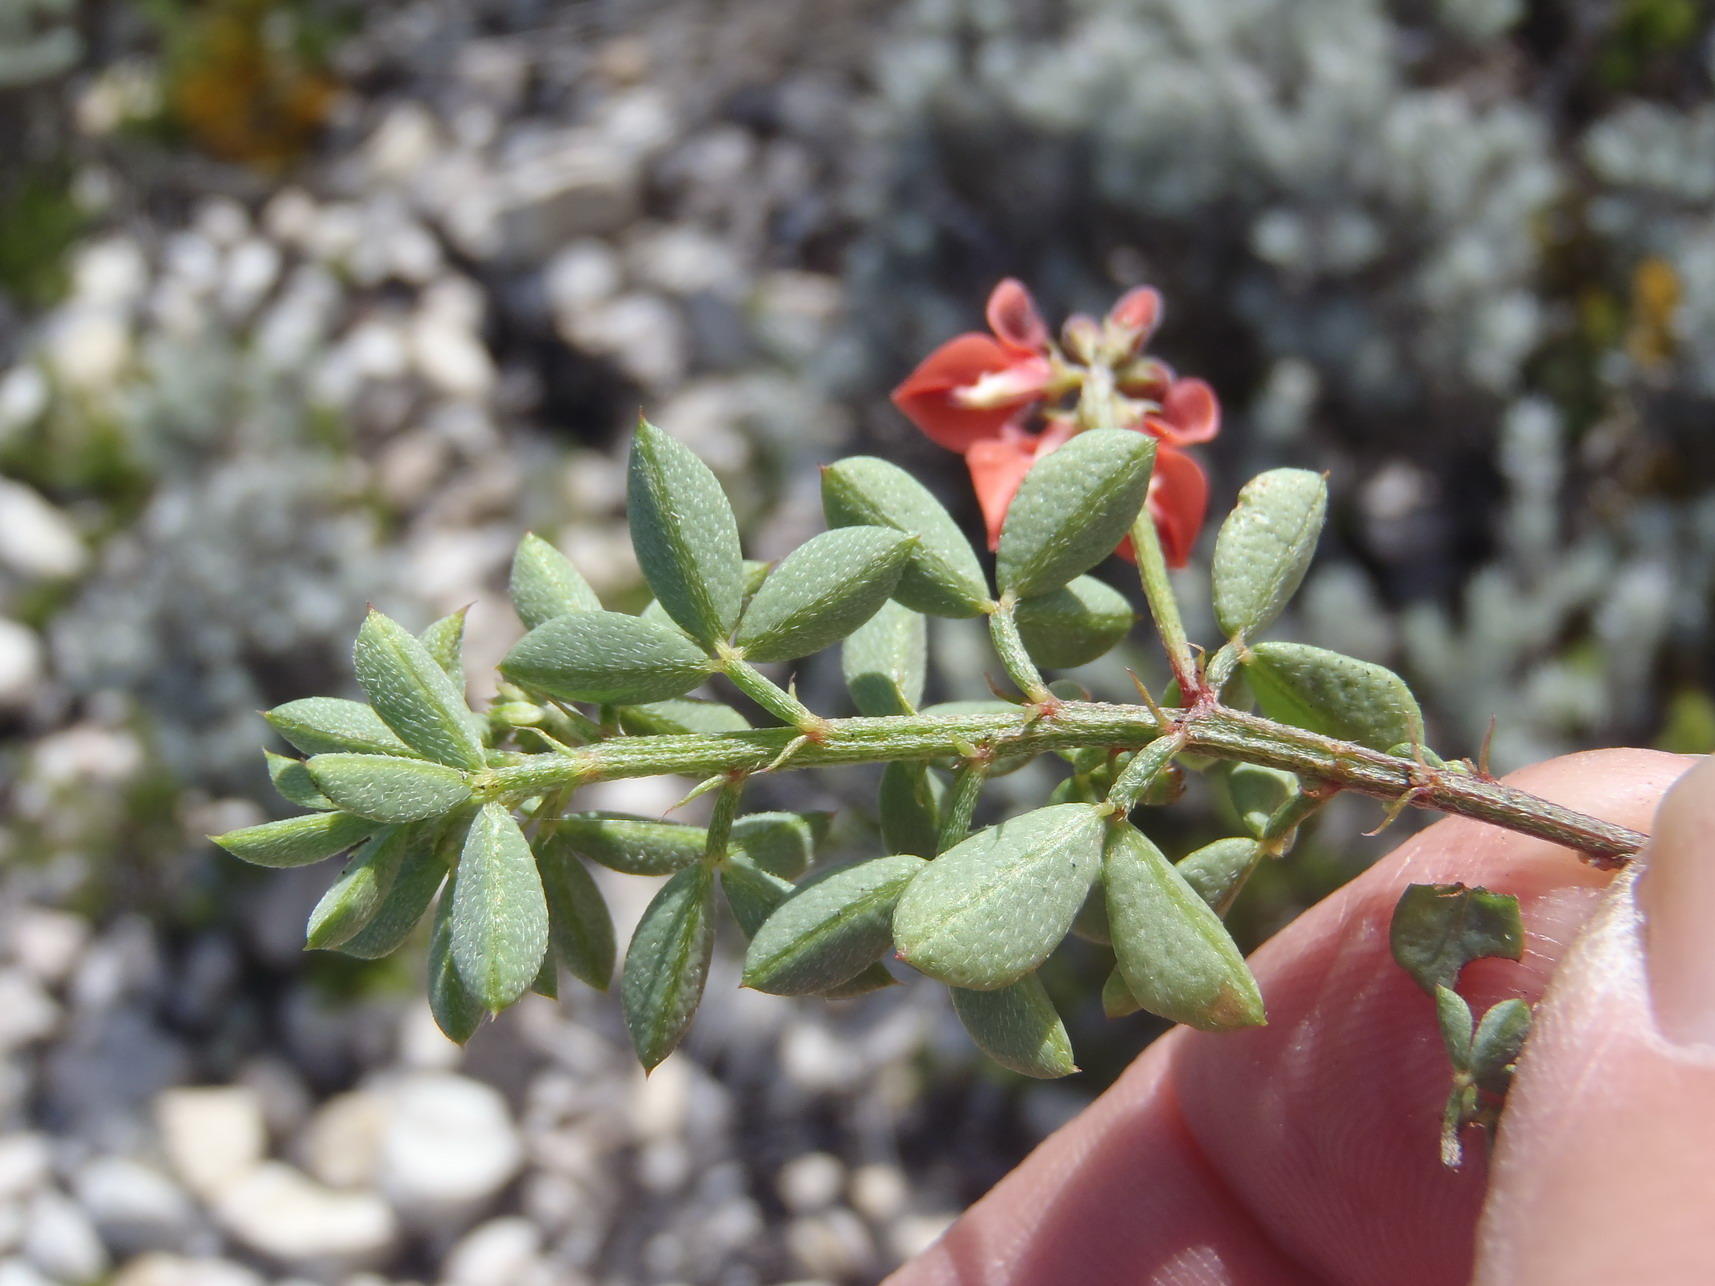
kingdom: Plantae
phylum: Tracheophyta
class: Magnoliopsida
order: Fabales
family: Fabaceae
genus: Indigofera
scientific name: Indigofera porrecta
